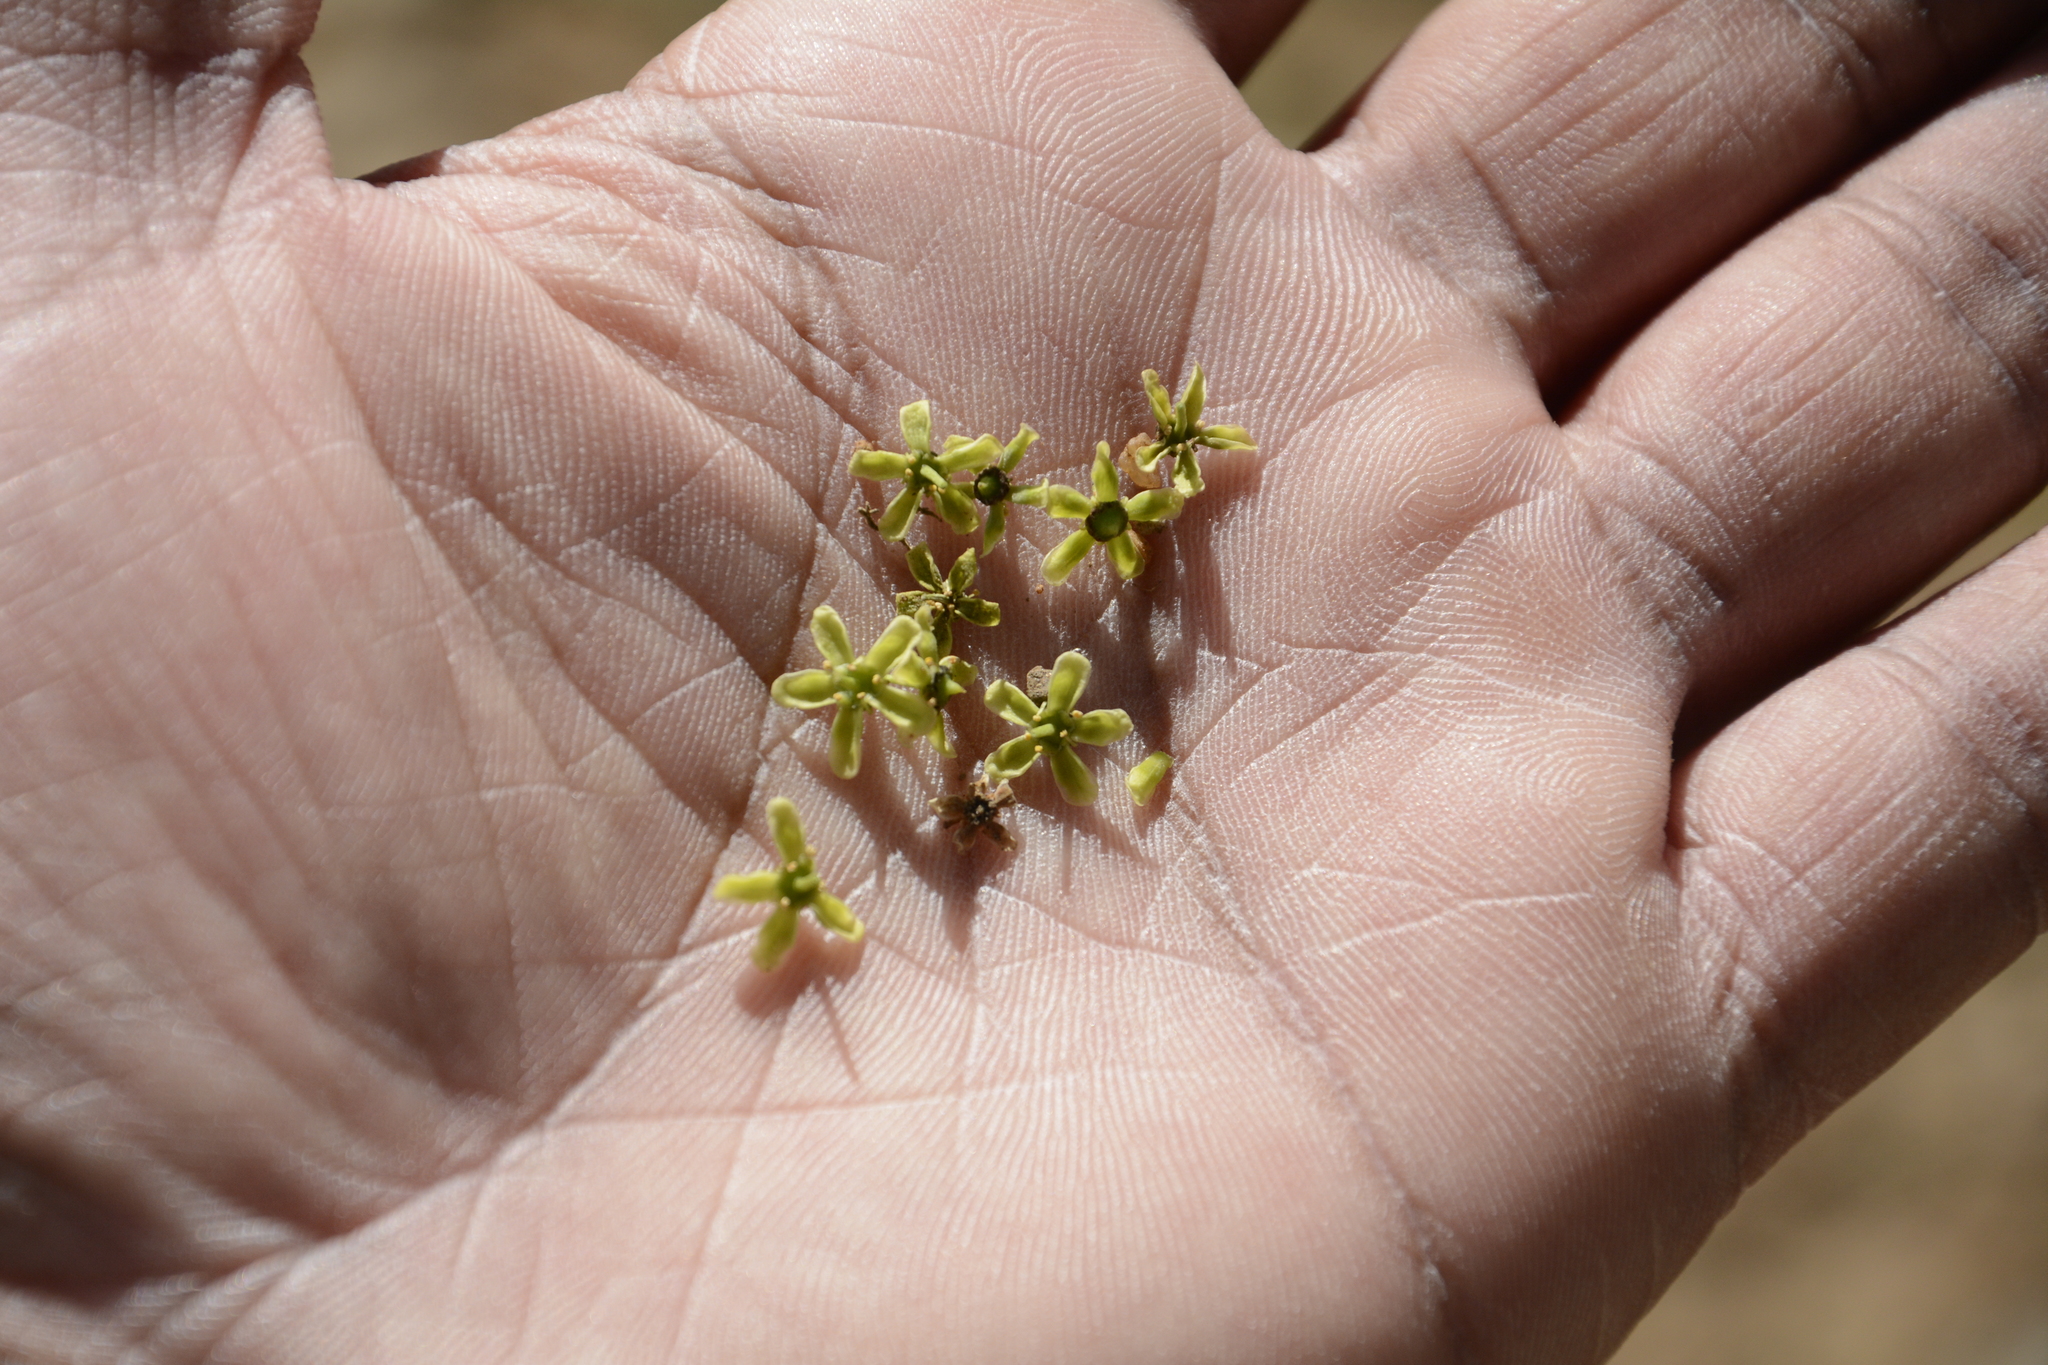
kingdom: Plantae
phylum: Tracheophyta
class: Magnoliopsida
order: Celastrales
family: Celastraceae
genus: Elaeodendron
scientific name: Elaeodendron glaucum
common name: Ceylon-tea
